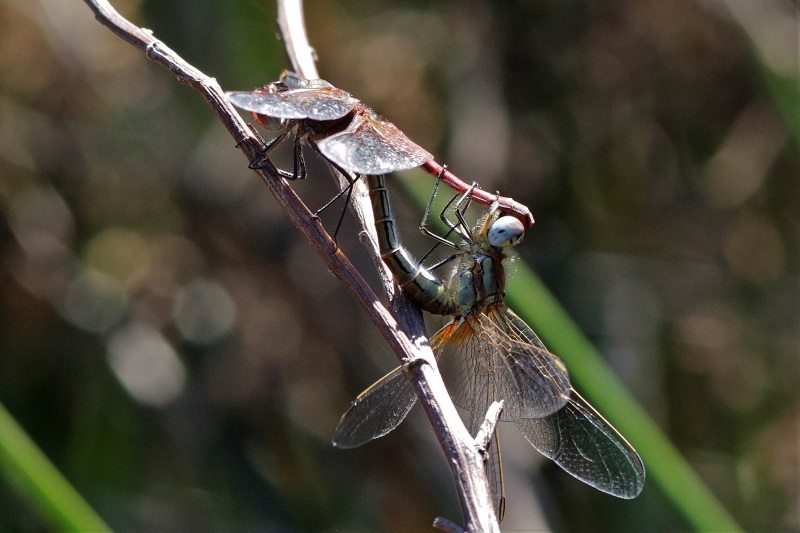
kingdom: Animalia
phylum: Arthropoda
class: Insecta
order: Odonata
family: Libellulidae
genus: Sympetrum
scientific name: Sympetrum fonscolombii
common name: Red-veined darter
